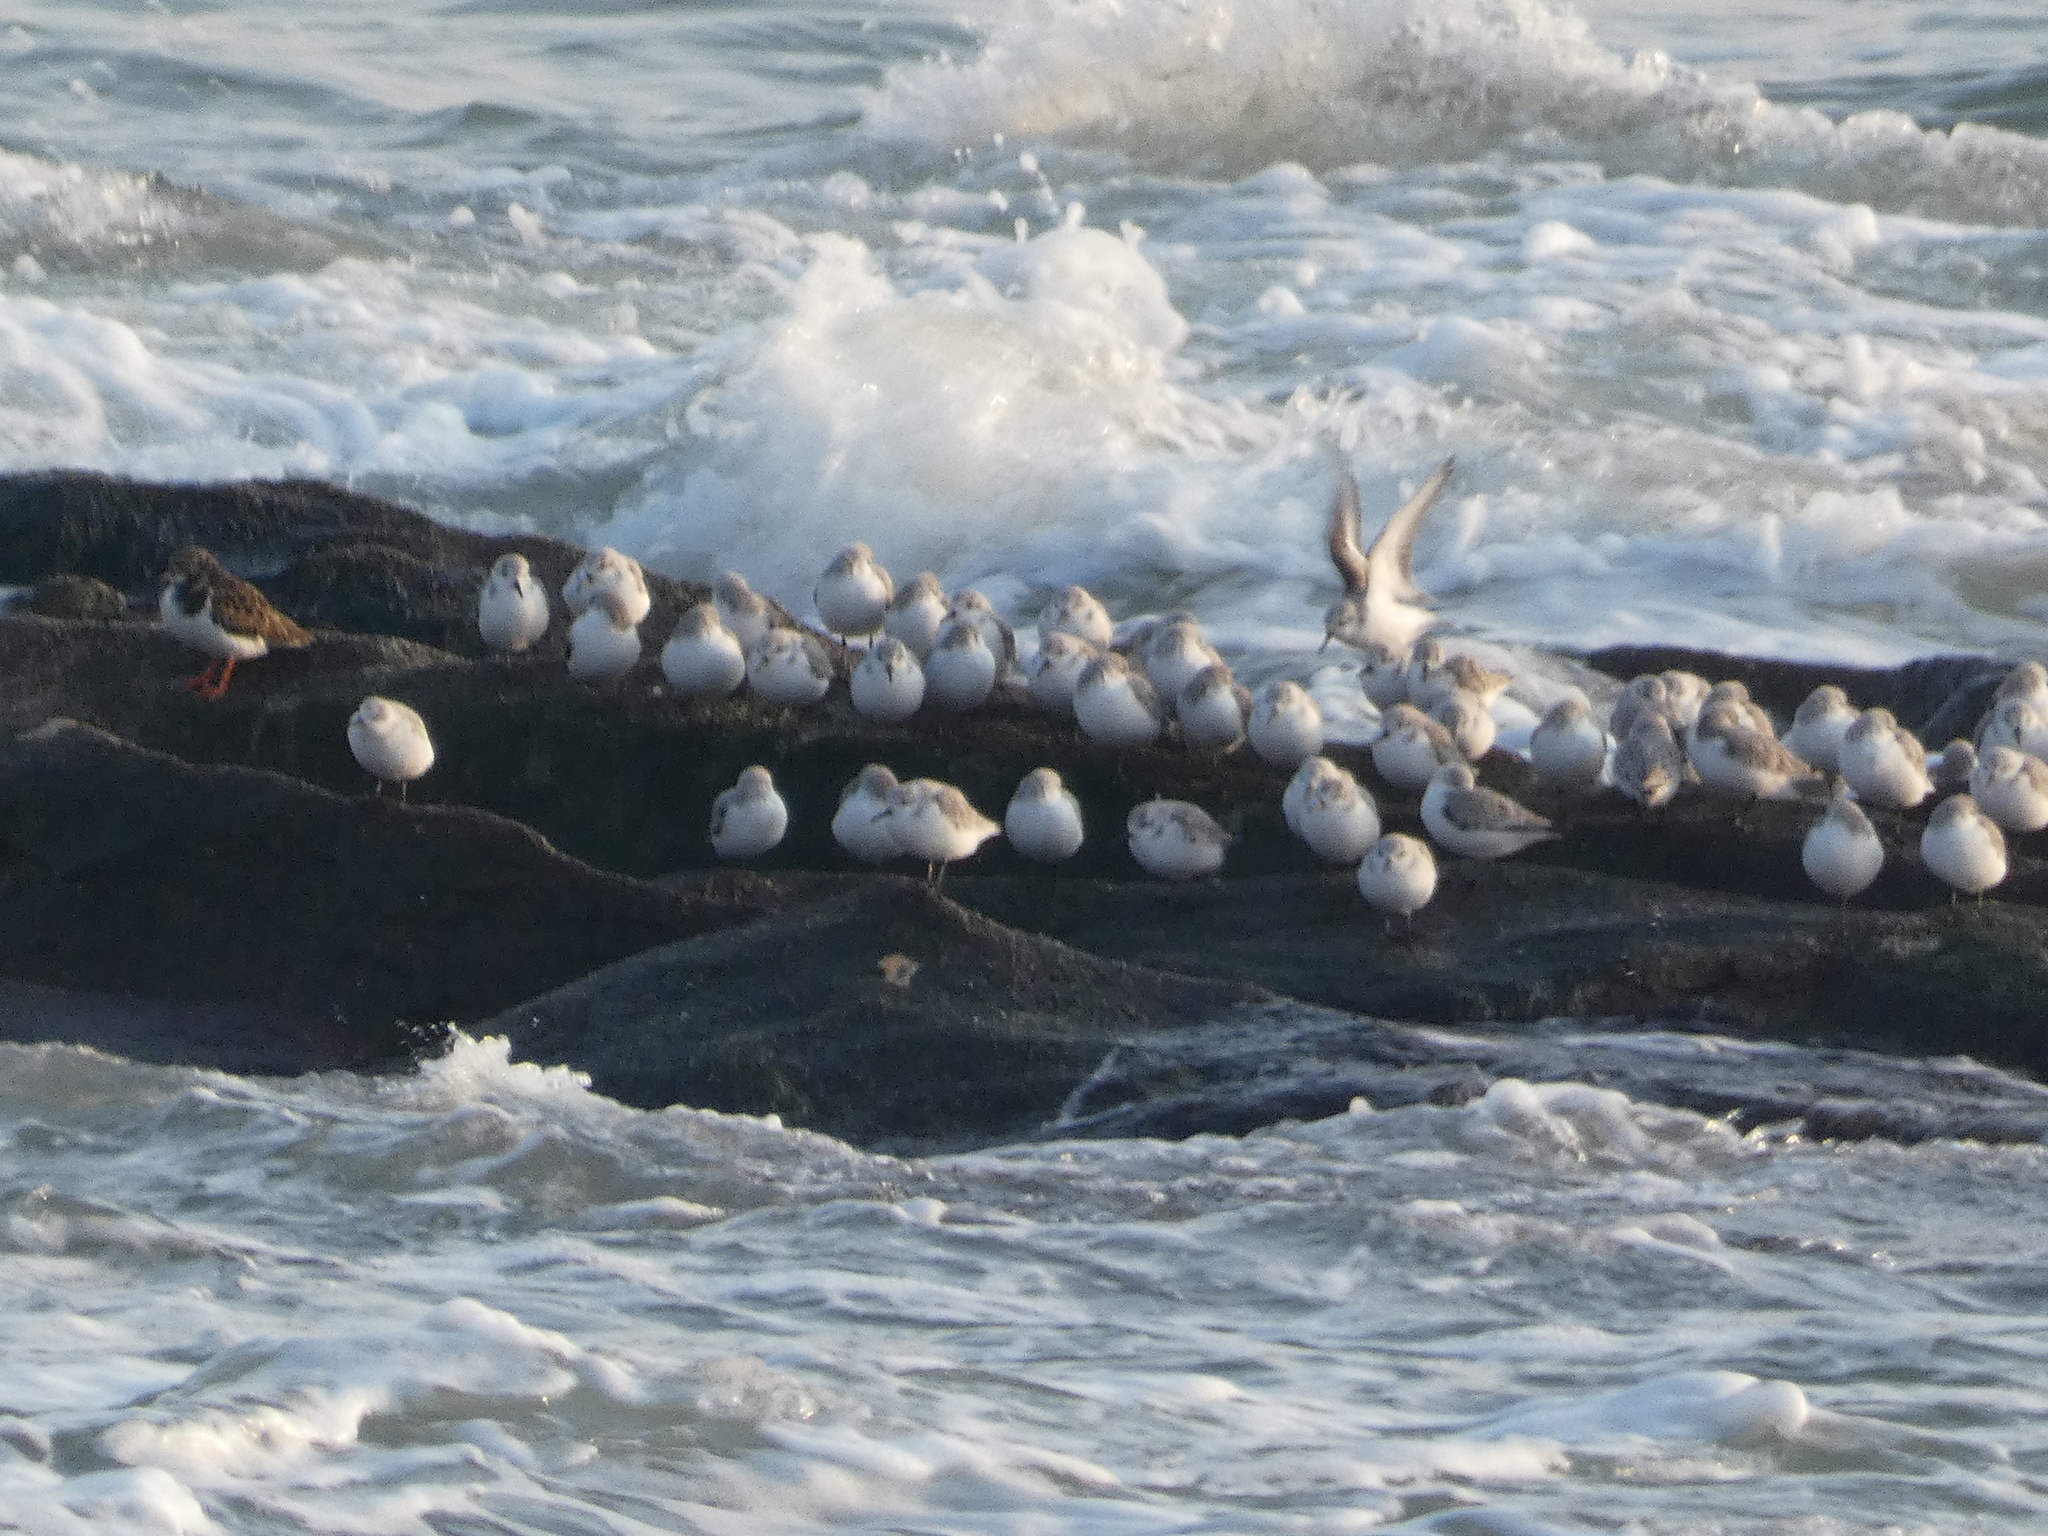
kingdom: Animalia
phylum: Chordata
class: Aves
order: Charadriiformes
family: Scolopacidae
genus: Calidris
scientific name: Calidris alba
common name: Sanderling
